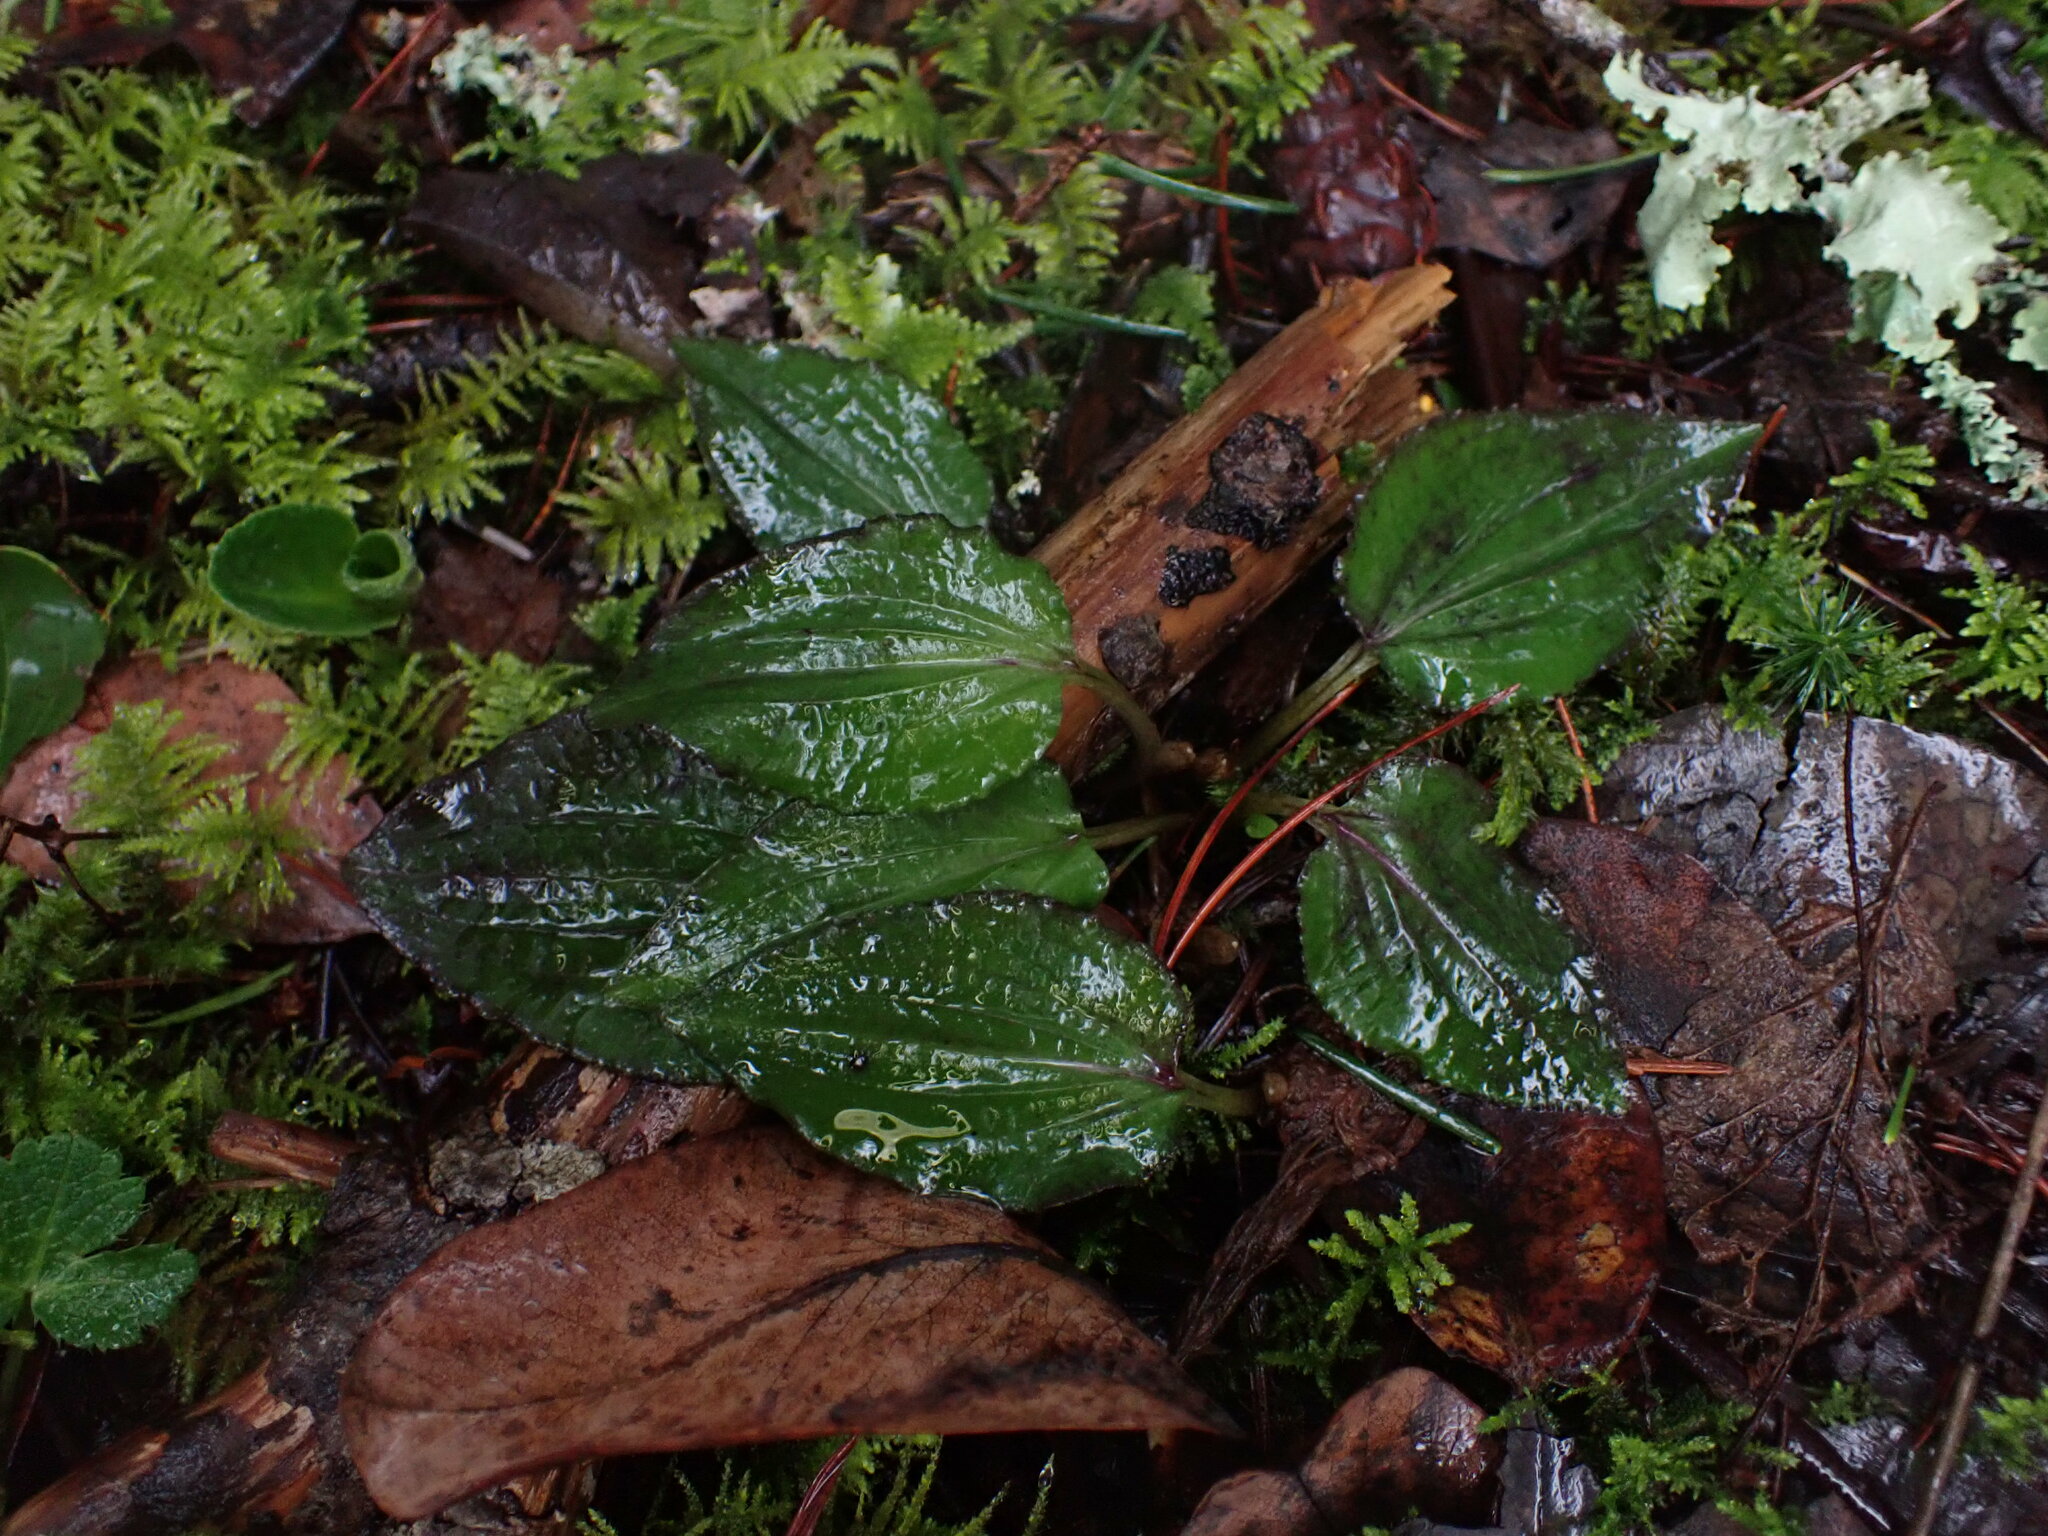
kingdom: Plantae
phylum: Tracheophyta
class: Liliopsida
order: Asparagales
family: Orchidaceae
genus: Calypso
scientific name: Calypso bulbosa
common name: Calypso
